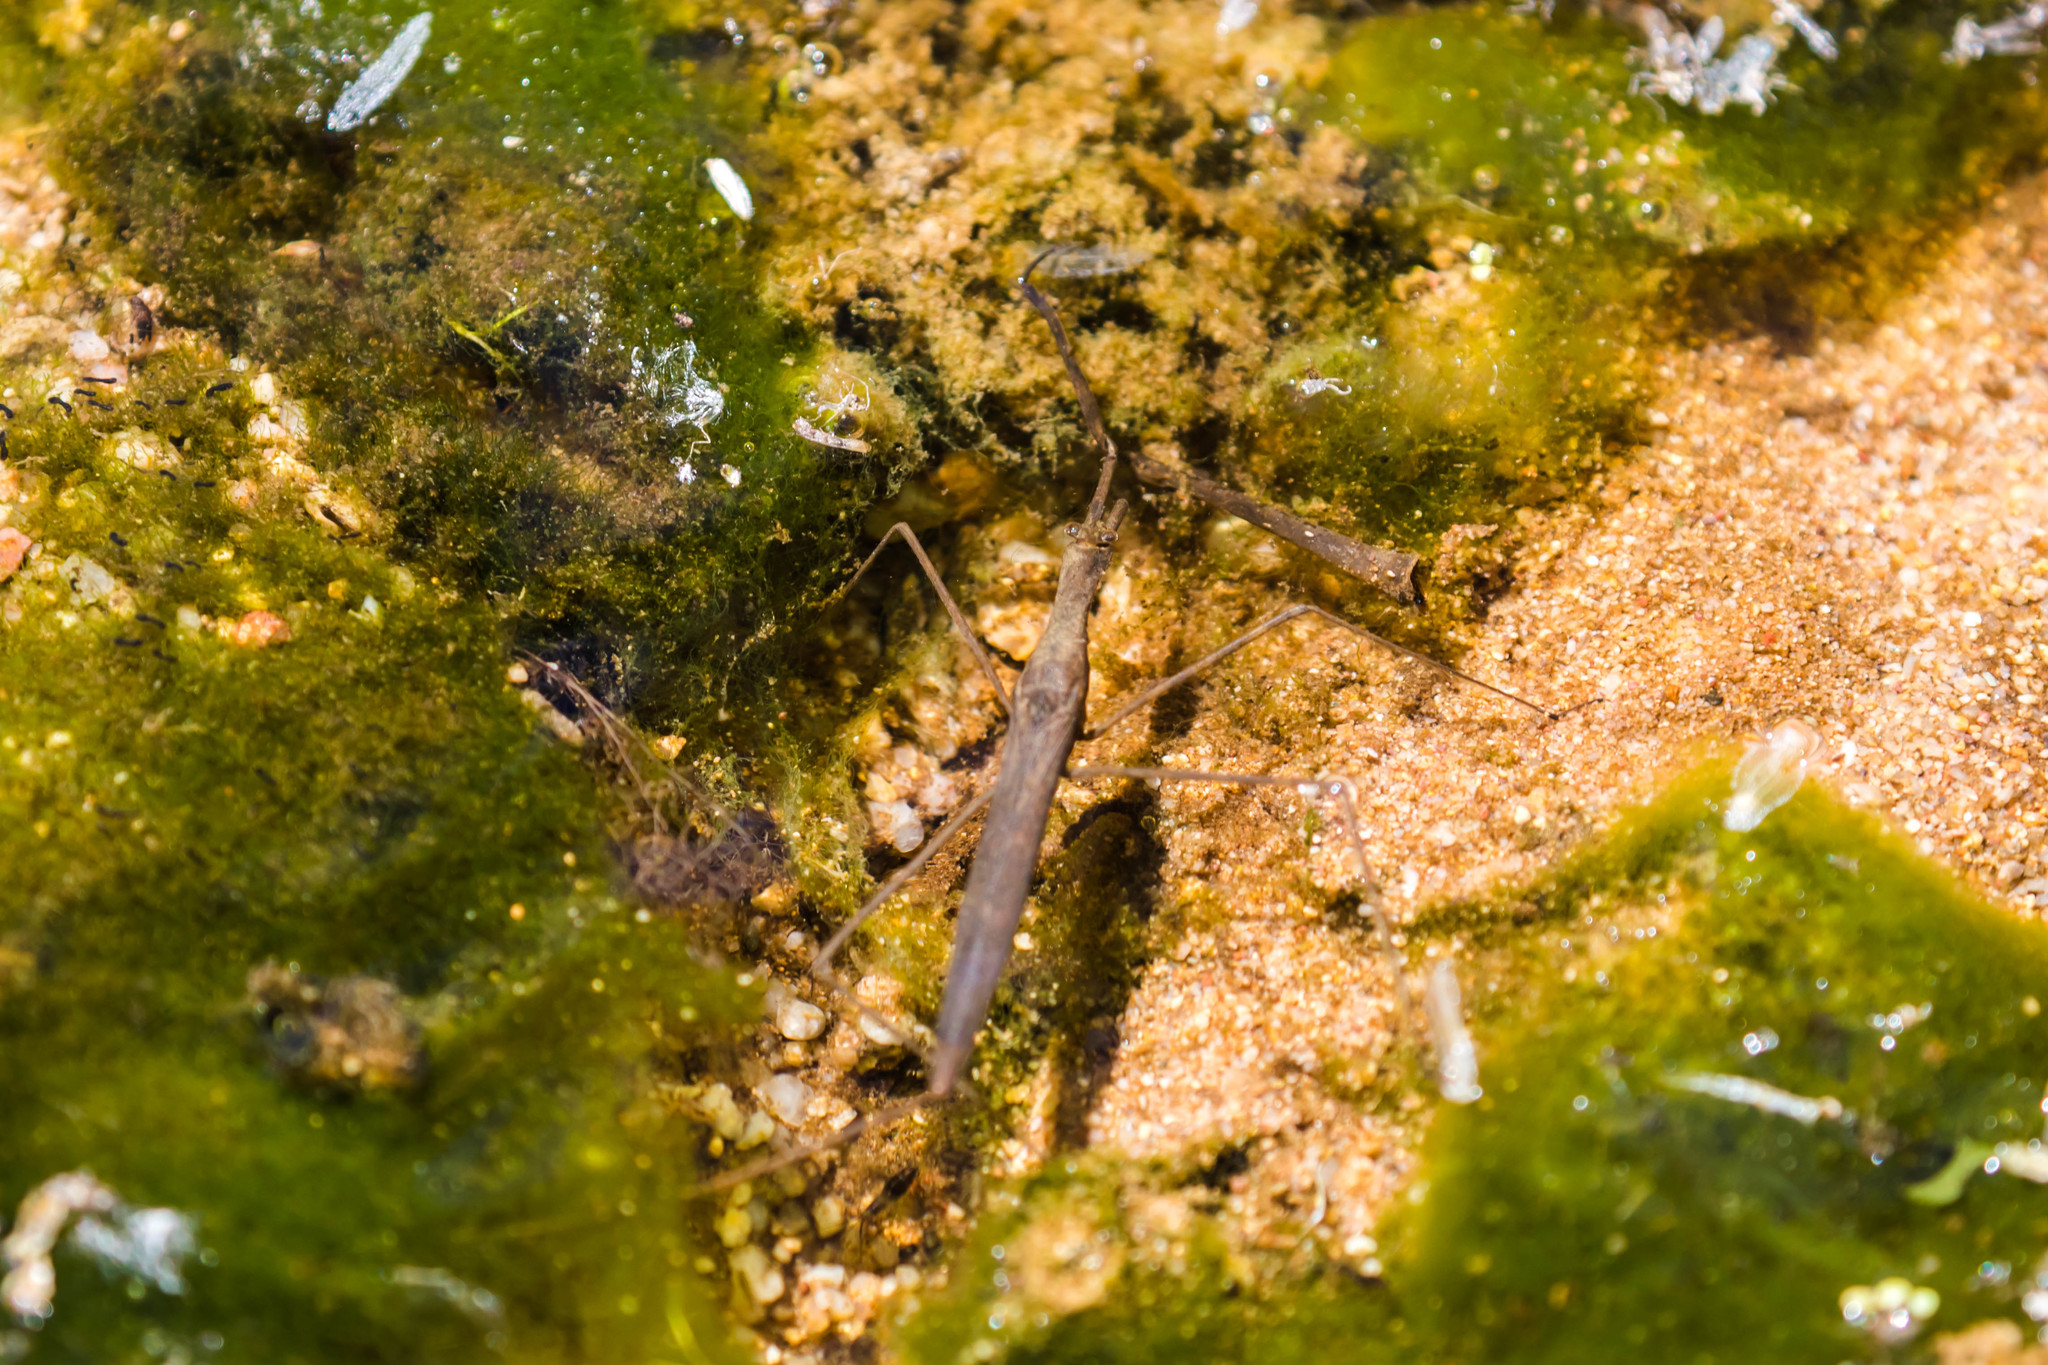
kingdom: Animalia
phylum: Arthropoda
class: Insecta
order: Hemiptera
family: Nepidae
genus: Ranatra
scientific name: Ranatra quadridentata
